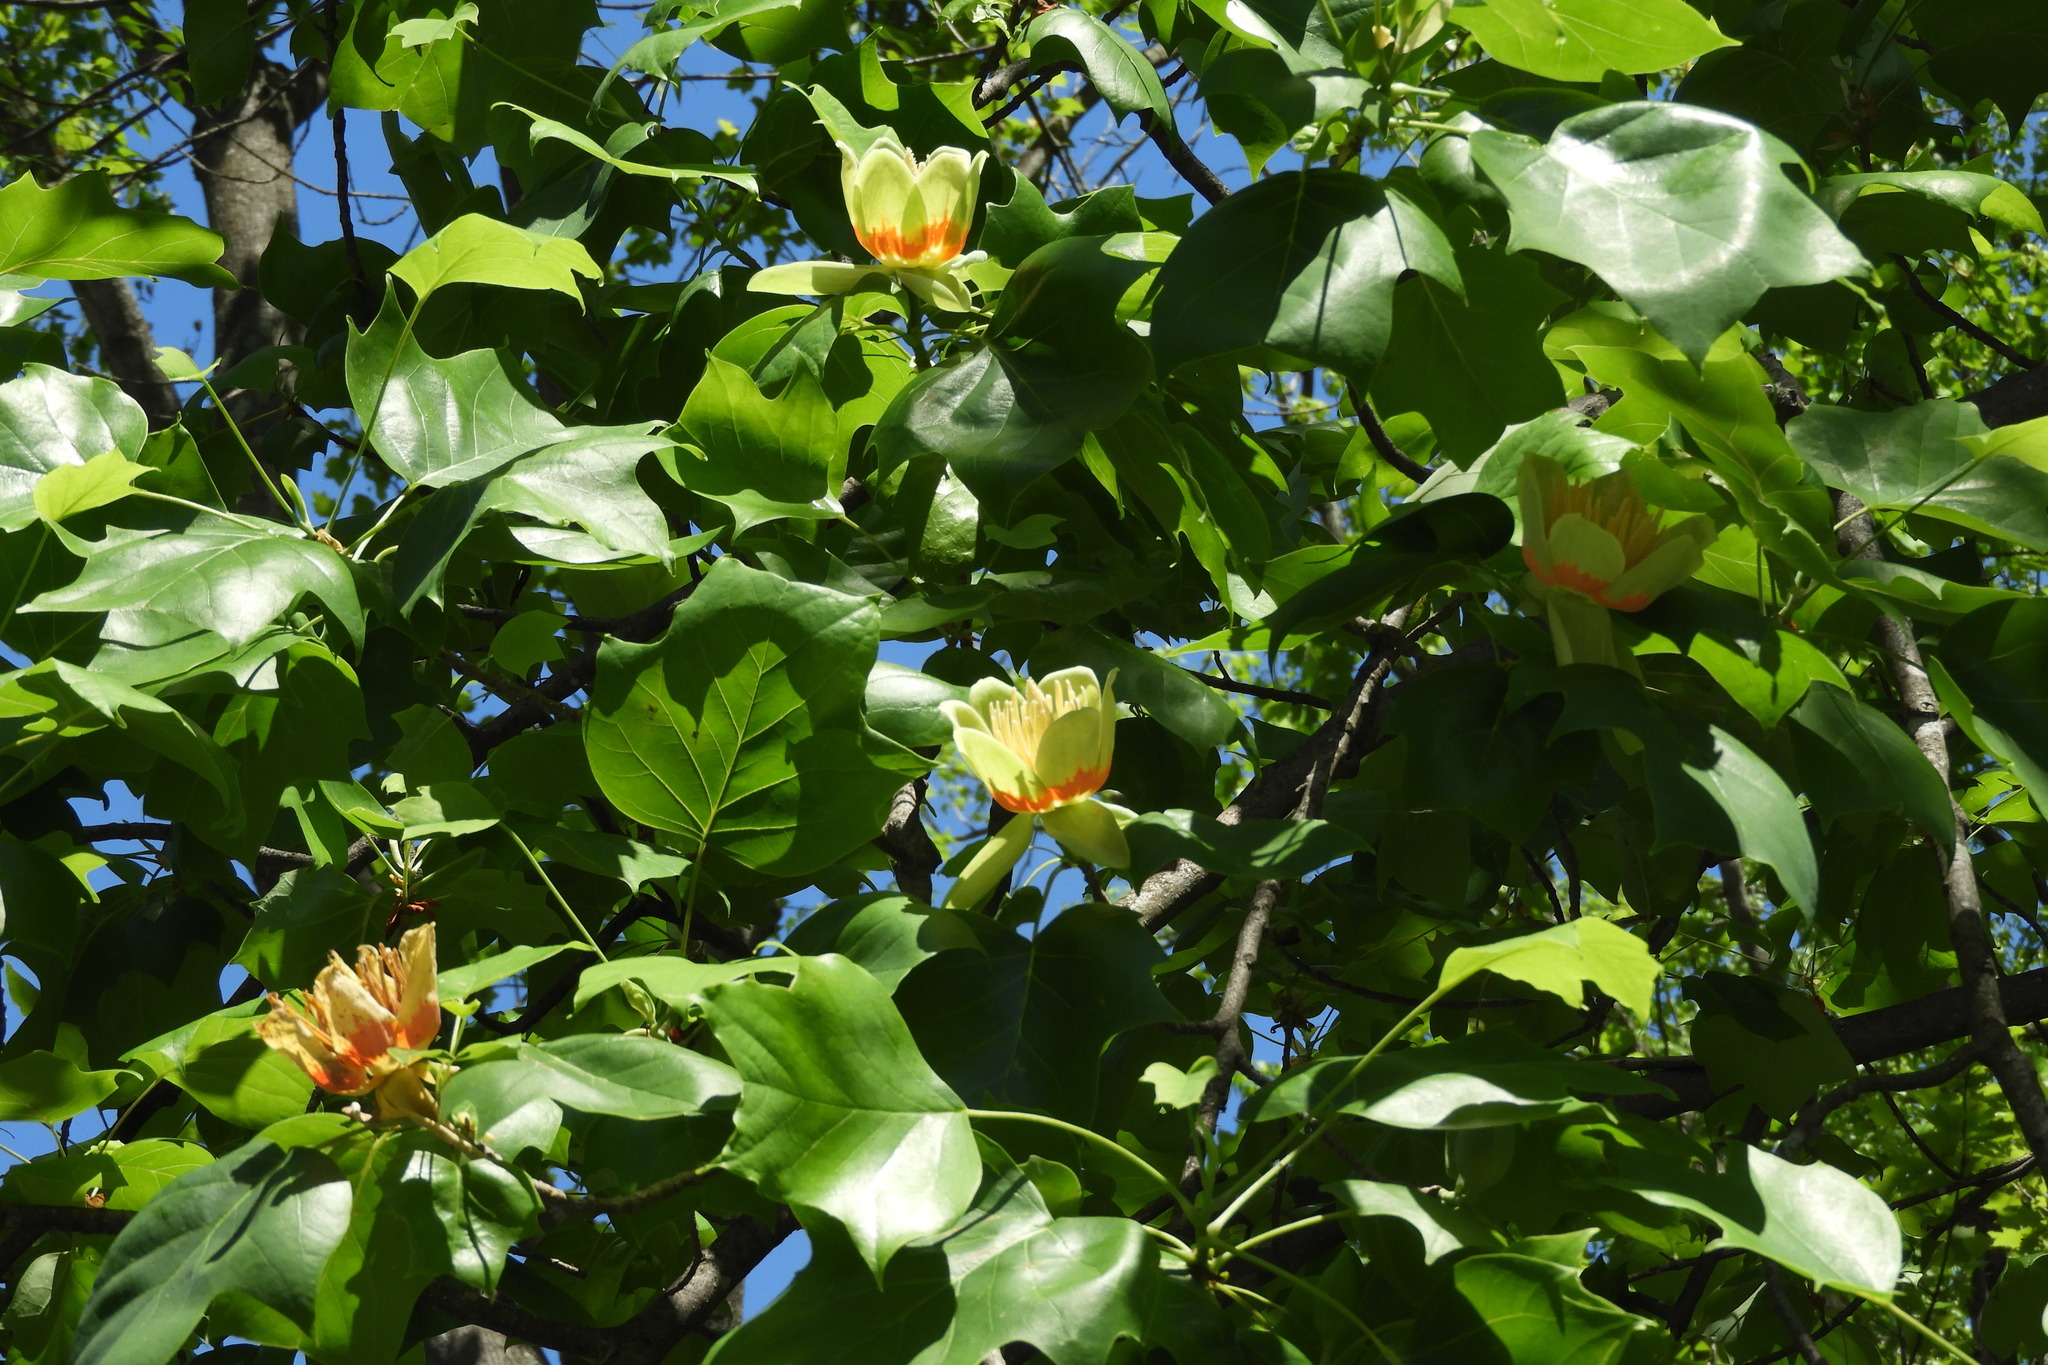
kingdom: Plantae
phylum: Tracheophyta
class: Magnoliopsida
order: Magnoliales
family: Magnoliaceae
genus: Liriodendron
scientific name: Liriodendron tulipifera
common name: Tulip tree
